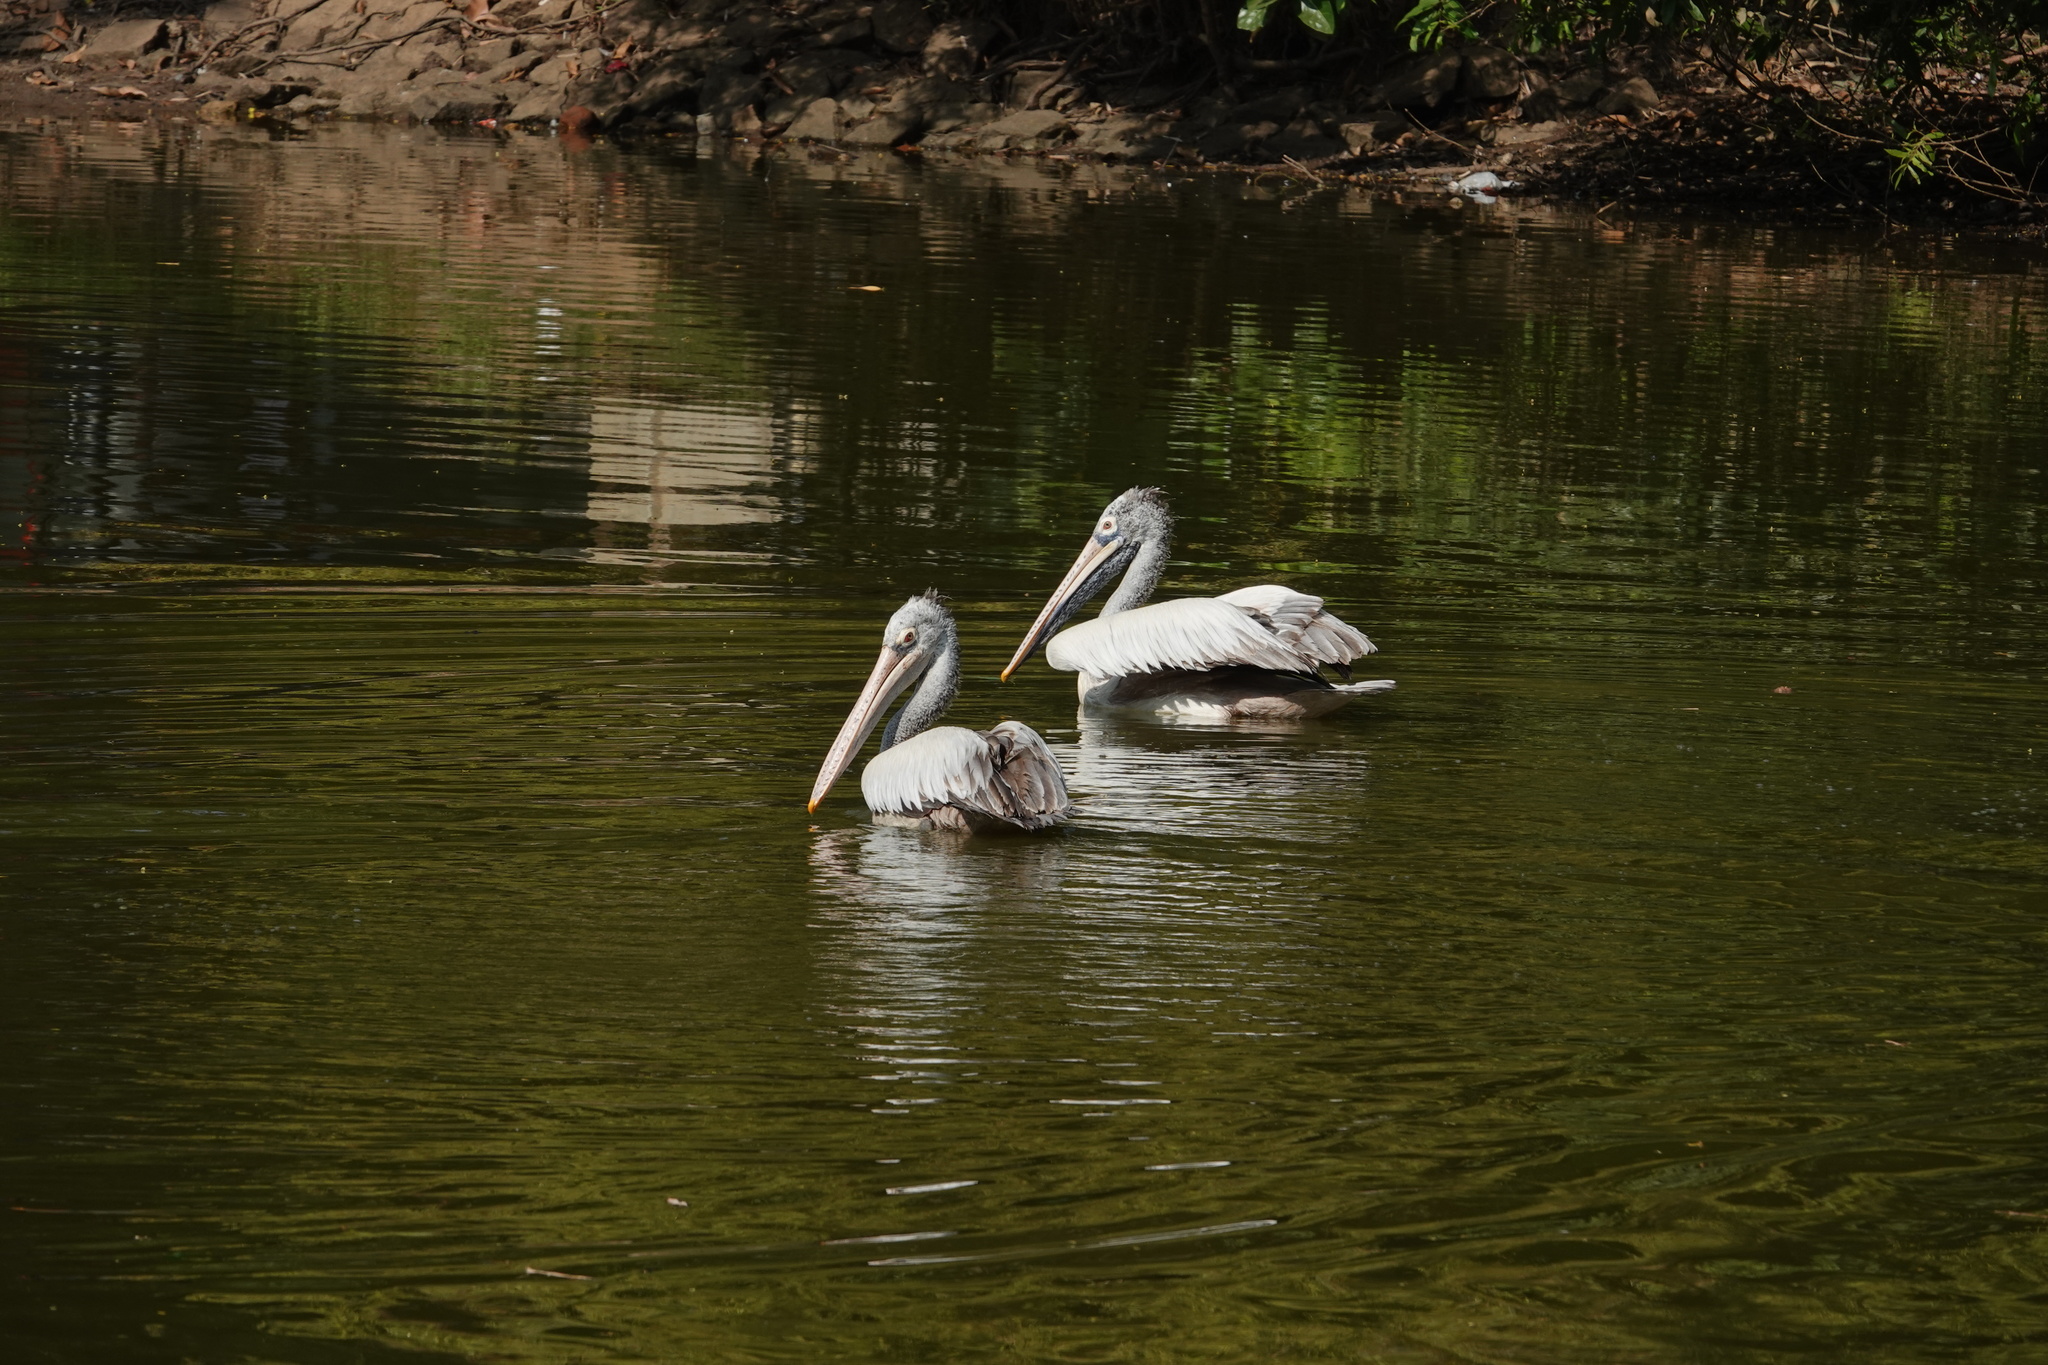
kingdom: Animalia
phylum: Chordata
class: Aves
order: Pelecaniformes
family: Pelecanidae
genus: Pelecanus
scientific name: Pelecanus philippensis
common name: Spot-billed pelican
